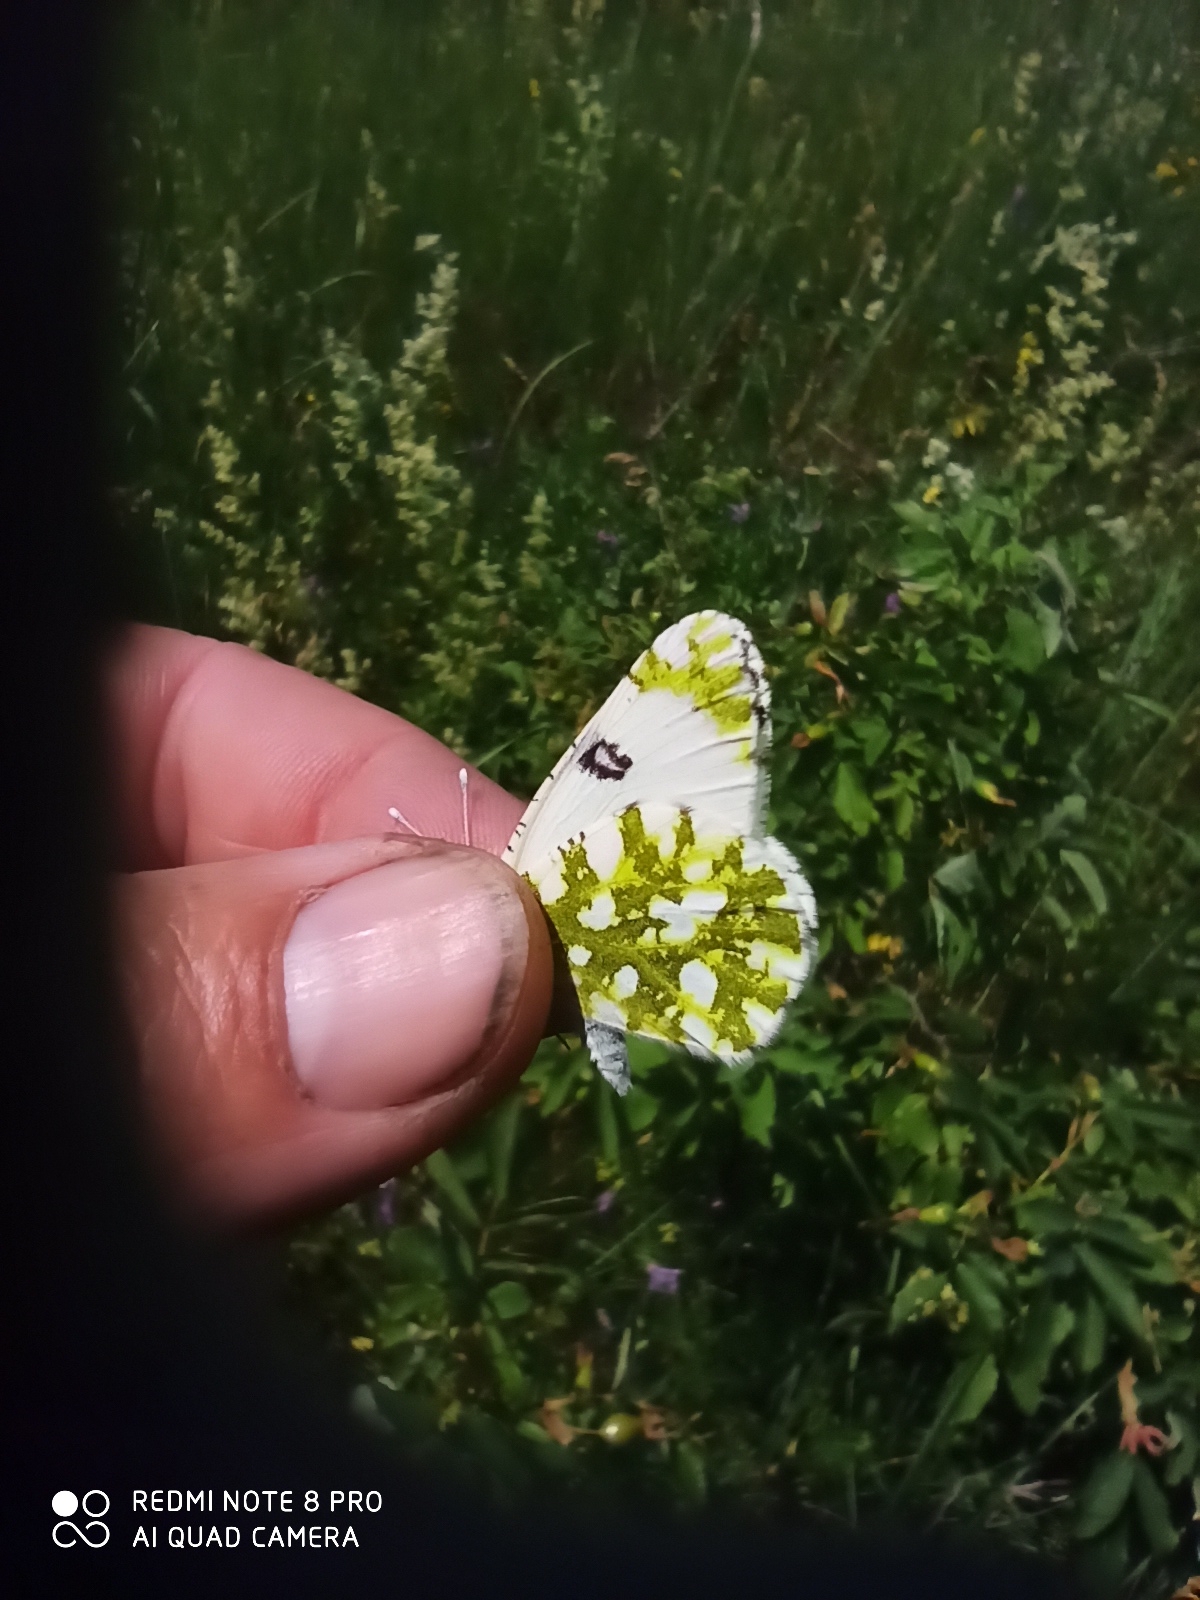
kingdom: Animalia
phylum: Arthropoda
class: Insecta
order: Lepidoptera
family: Pieridae
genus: Euchloe
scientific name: Euchloe ausonia
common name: Eastern dappled white
